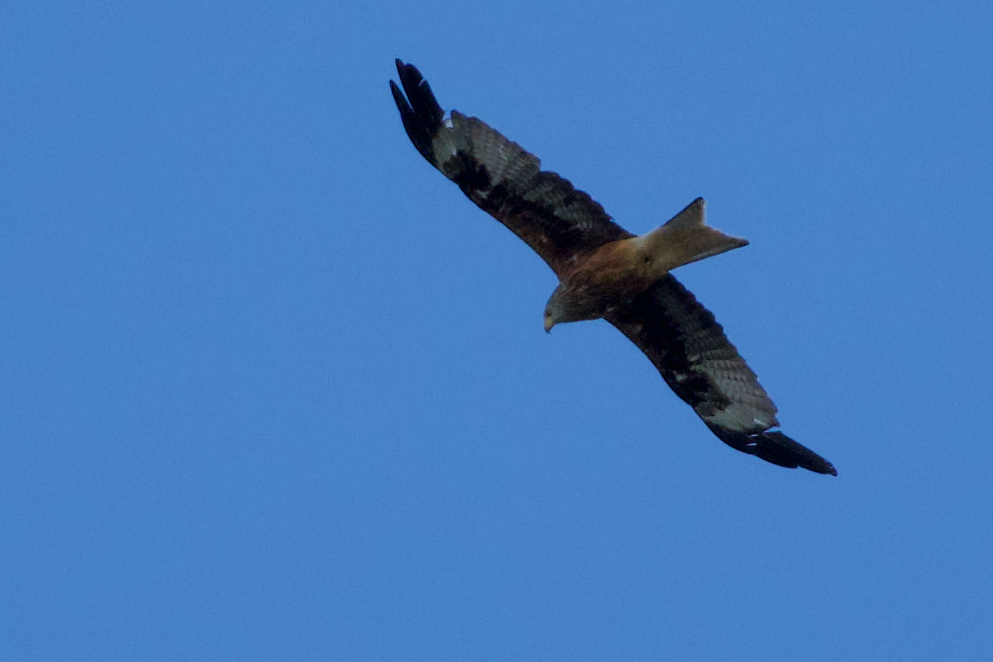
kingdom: Animalia
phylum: Chordata
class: Aves
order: Accipitriformes
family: Accipitridae
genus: Milvus
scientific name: Milvus milvus
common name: Red kite
